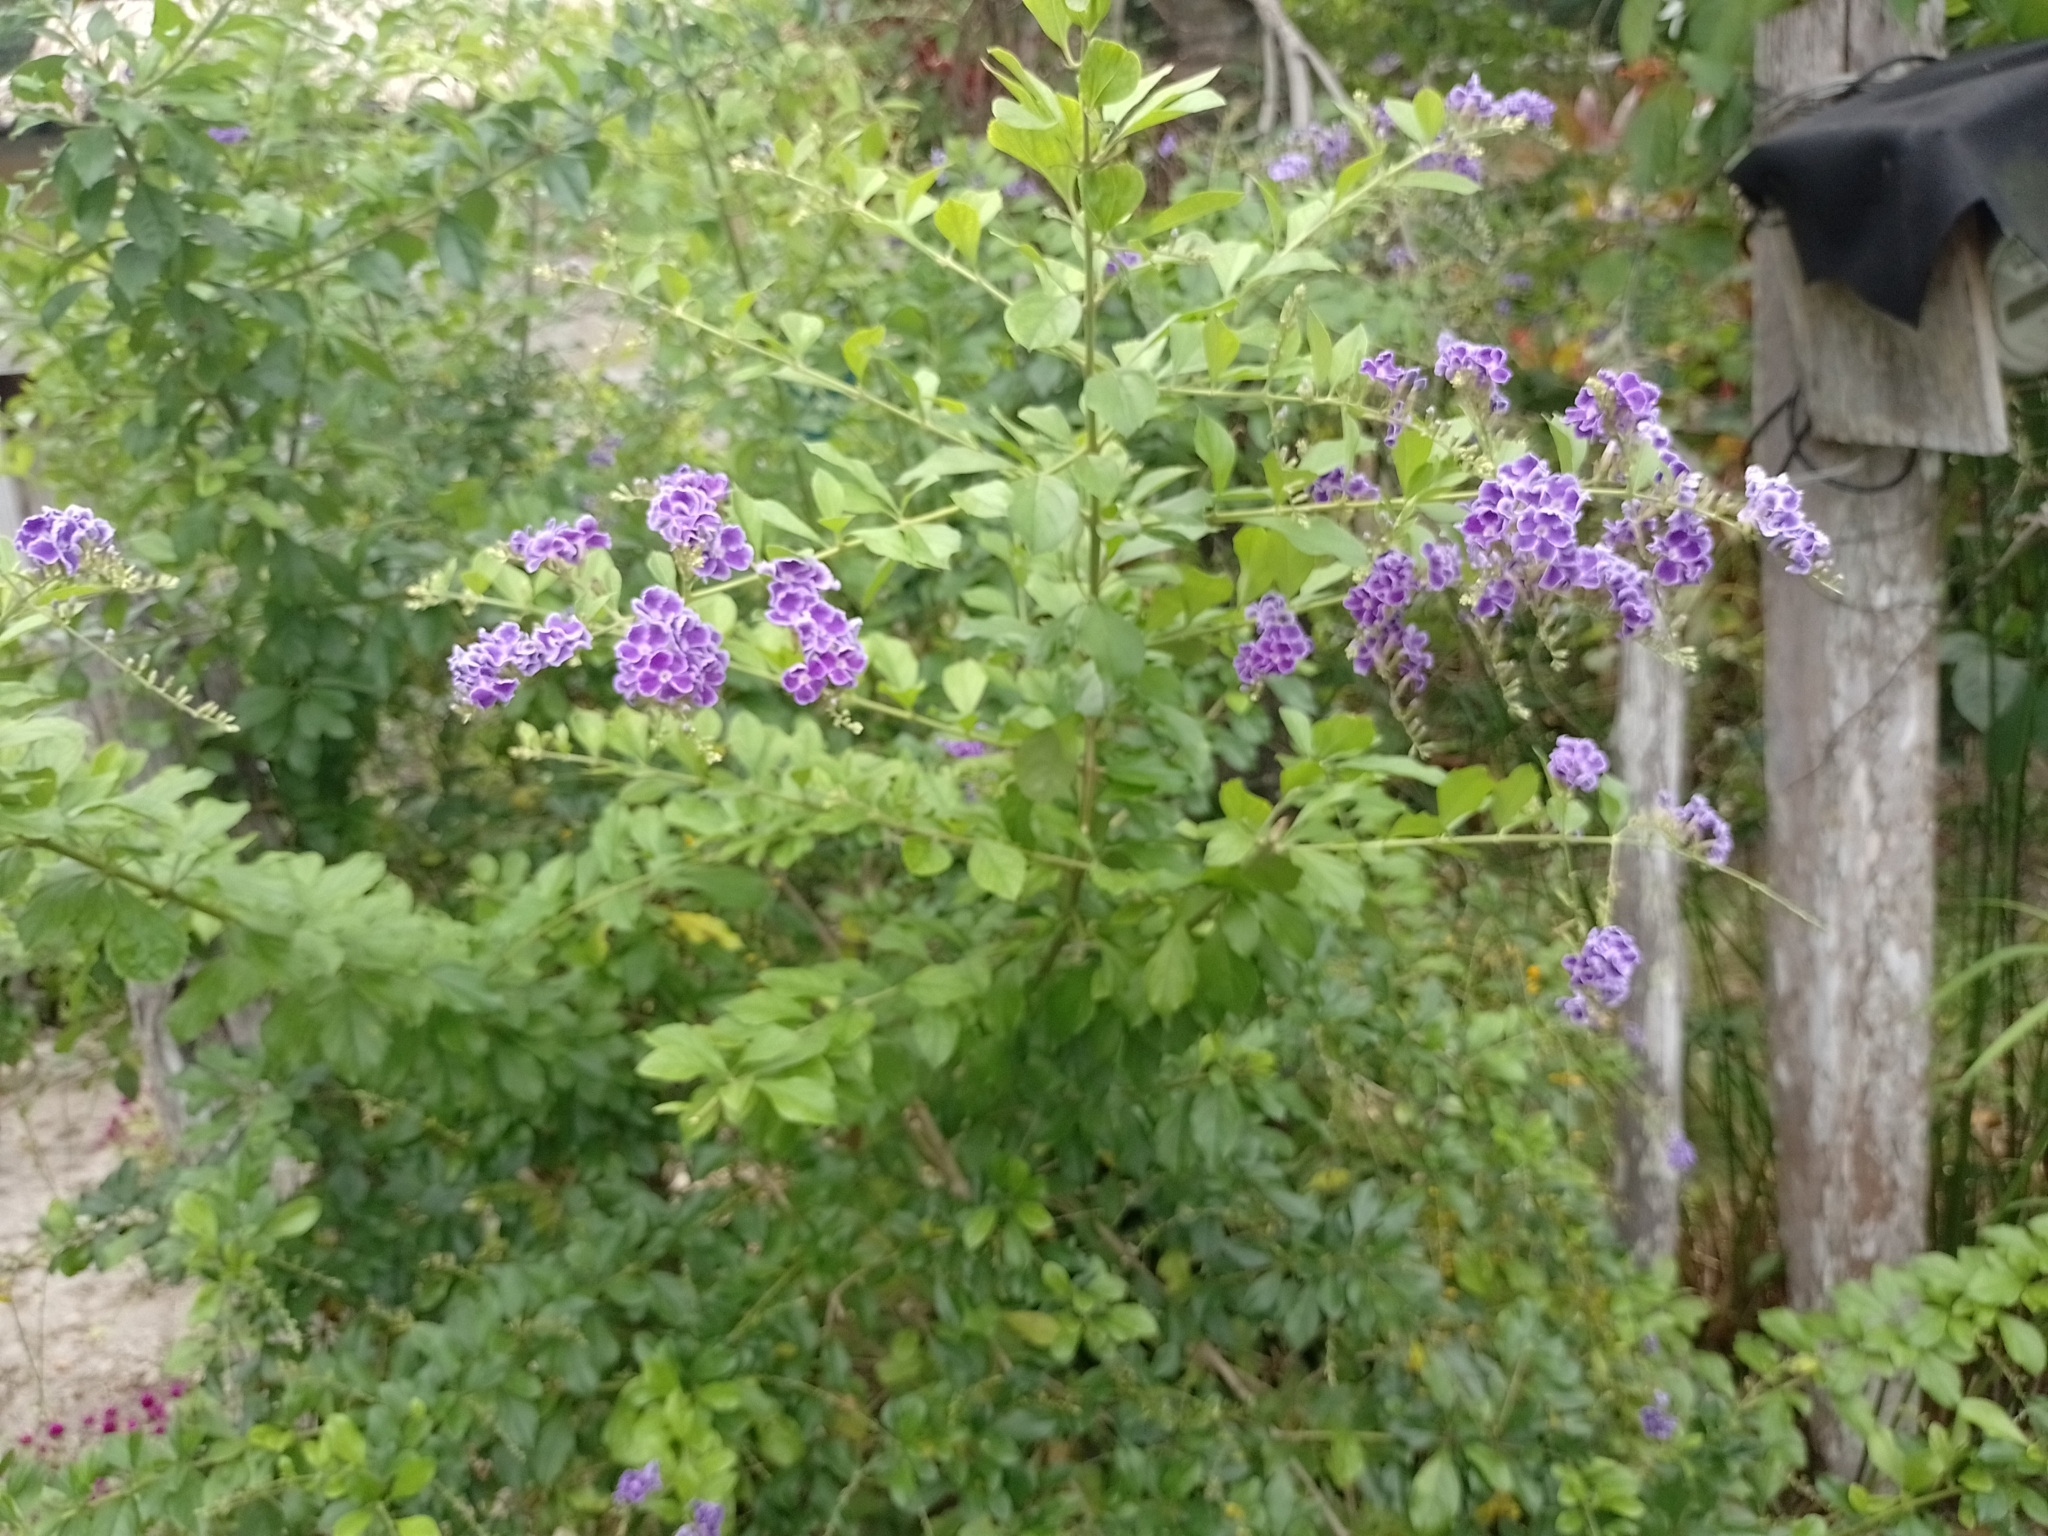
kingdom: Plantae
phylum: Tracheophyta
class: Magnoliopsida
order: Lamiales
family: Verbenaceae
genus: Duranta
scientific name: Duranta erecta
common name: Golden dewdrops
